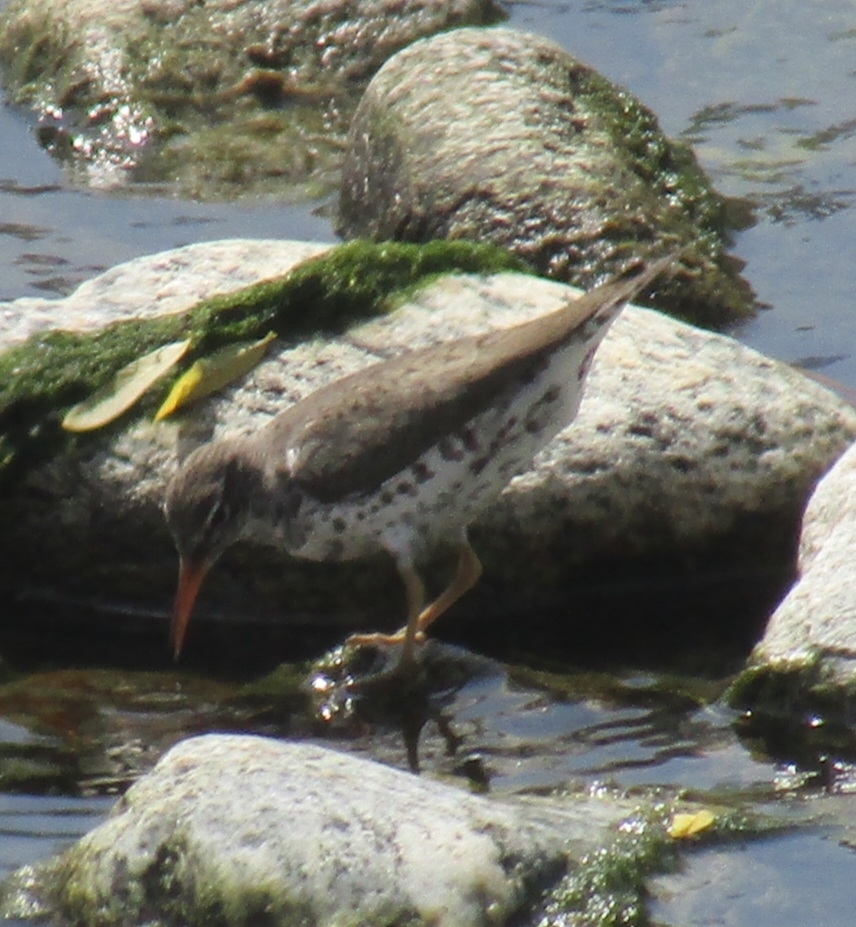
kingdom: Animalia
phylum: Chordata
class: Aves
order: Charadriiformes
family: Scolopacidae
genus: Actitis
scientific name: Actitis macularius
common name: Spotted sandpiper
